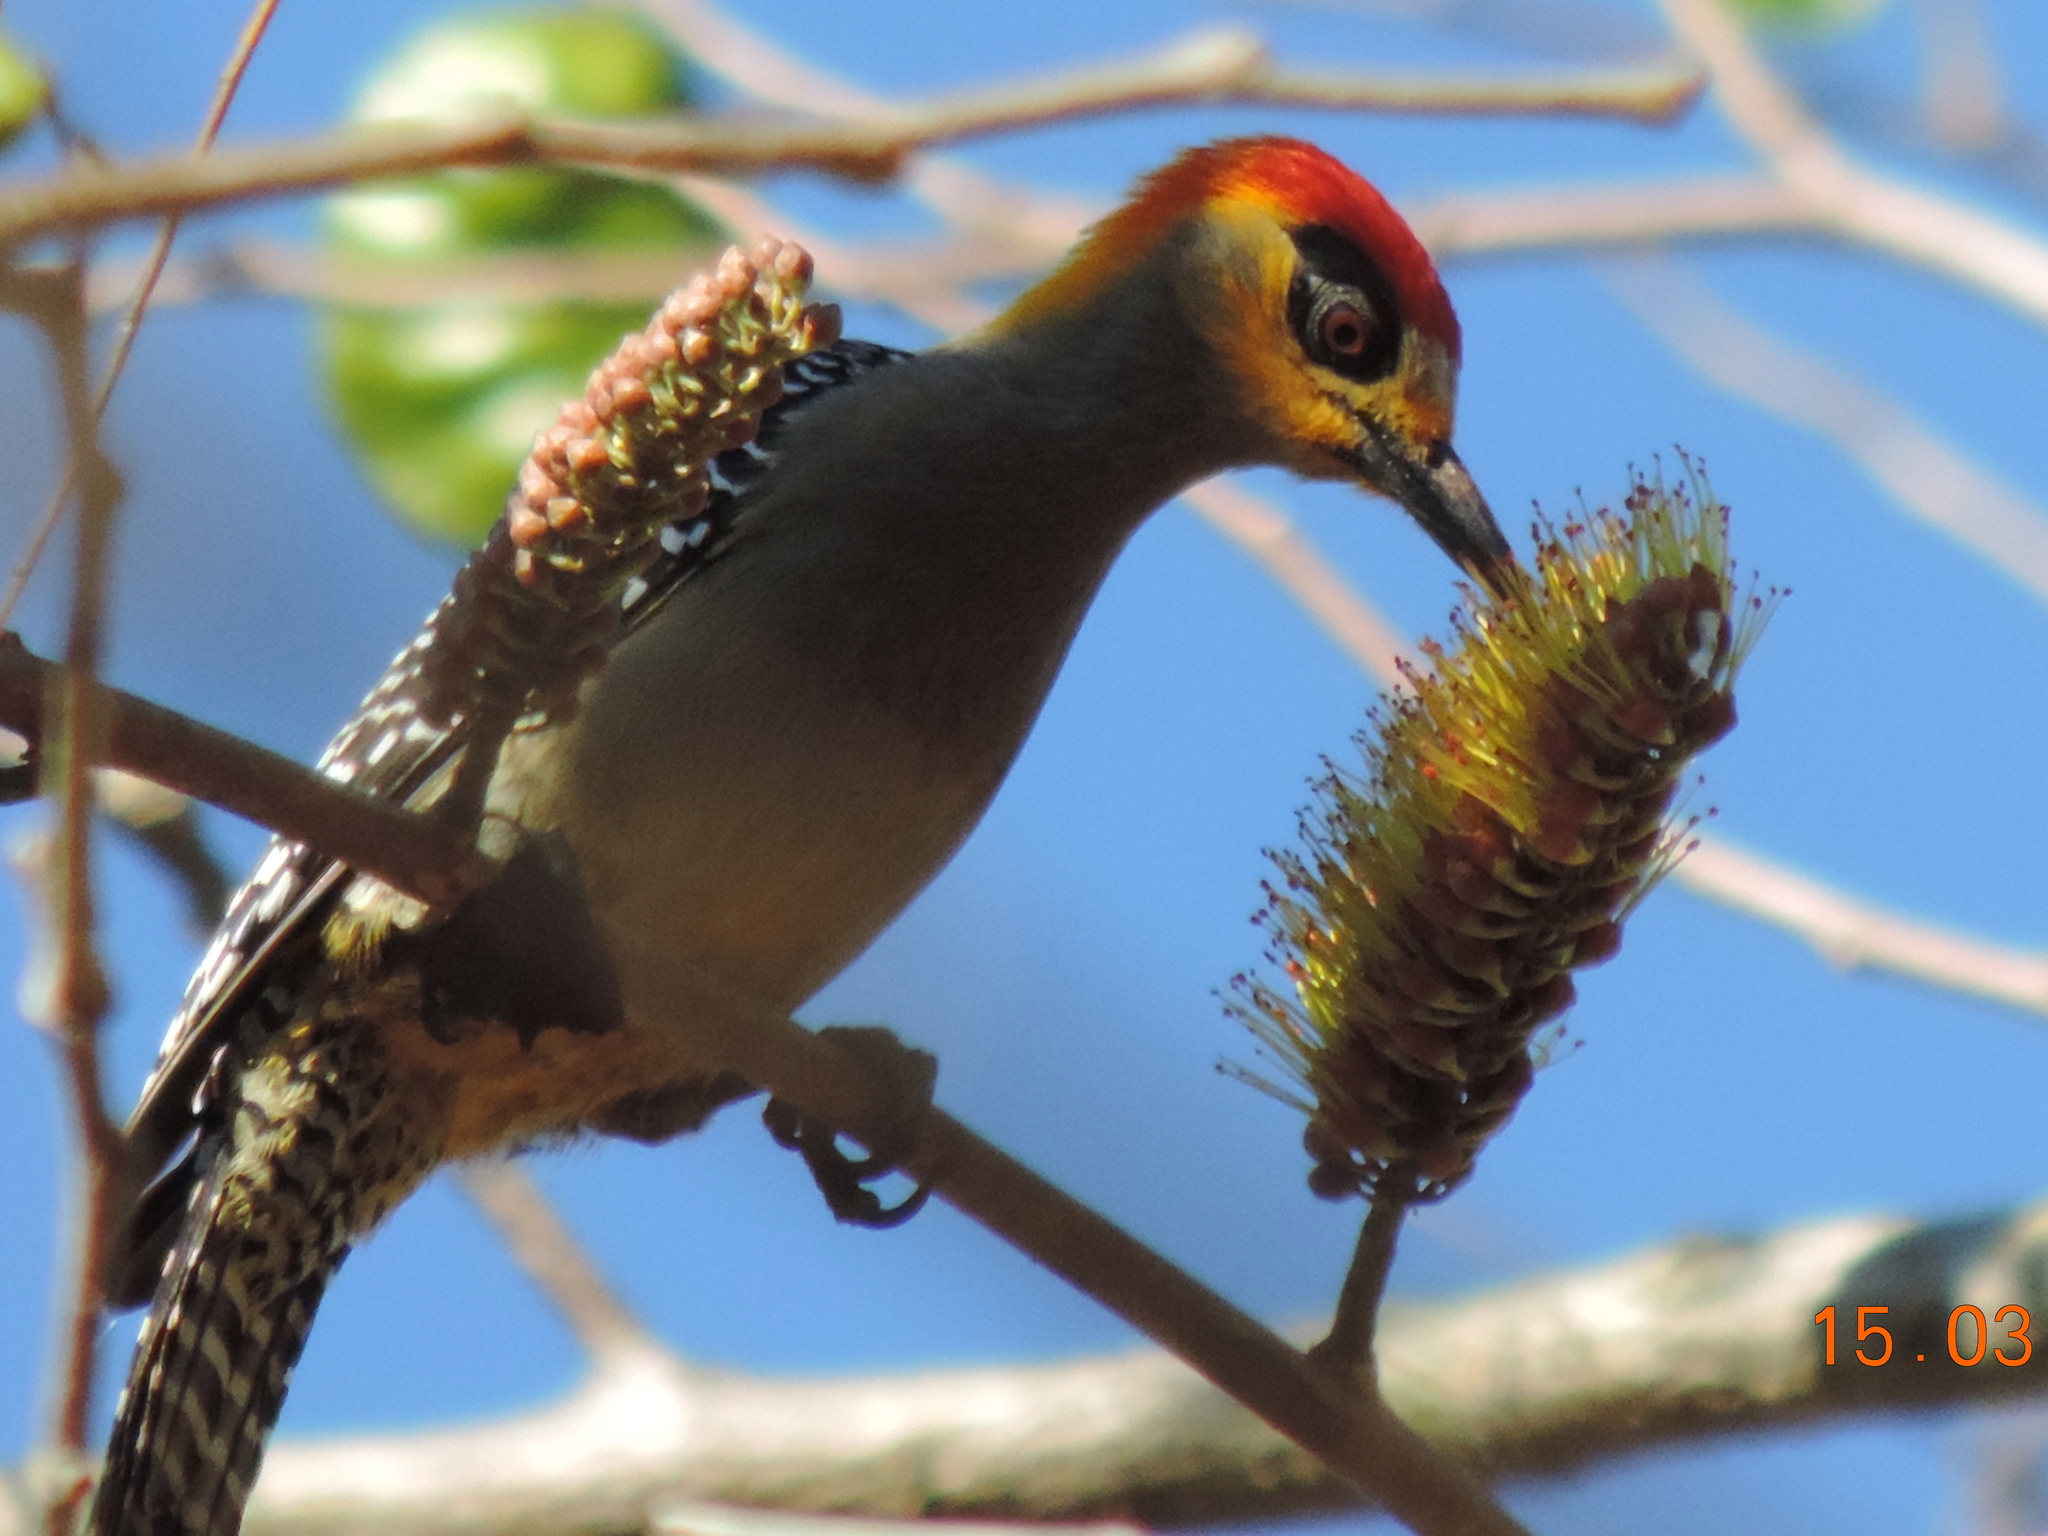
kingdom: Animalia
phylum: Chordata
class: Aves
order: Piciformes
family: Picidae
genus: Melanerpes
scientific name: Melanerpes chrysogenys
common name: Golden-cheeked woodpecker
